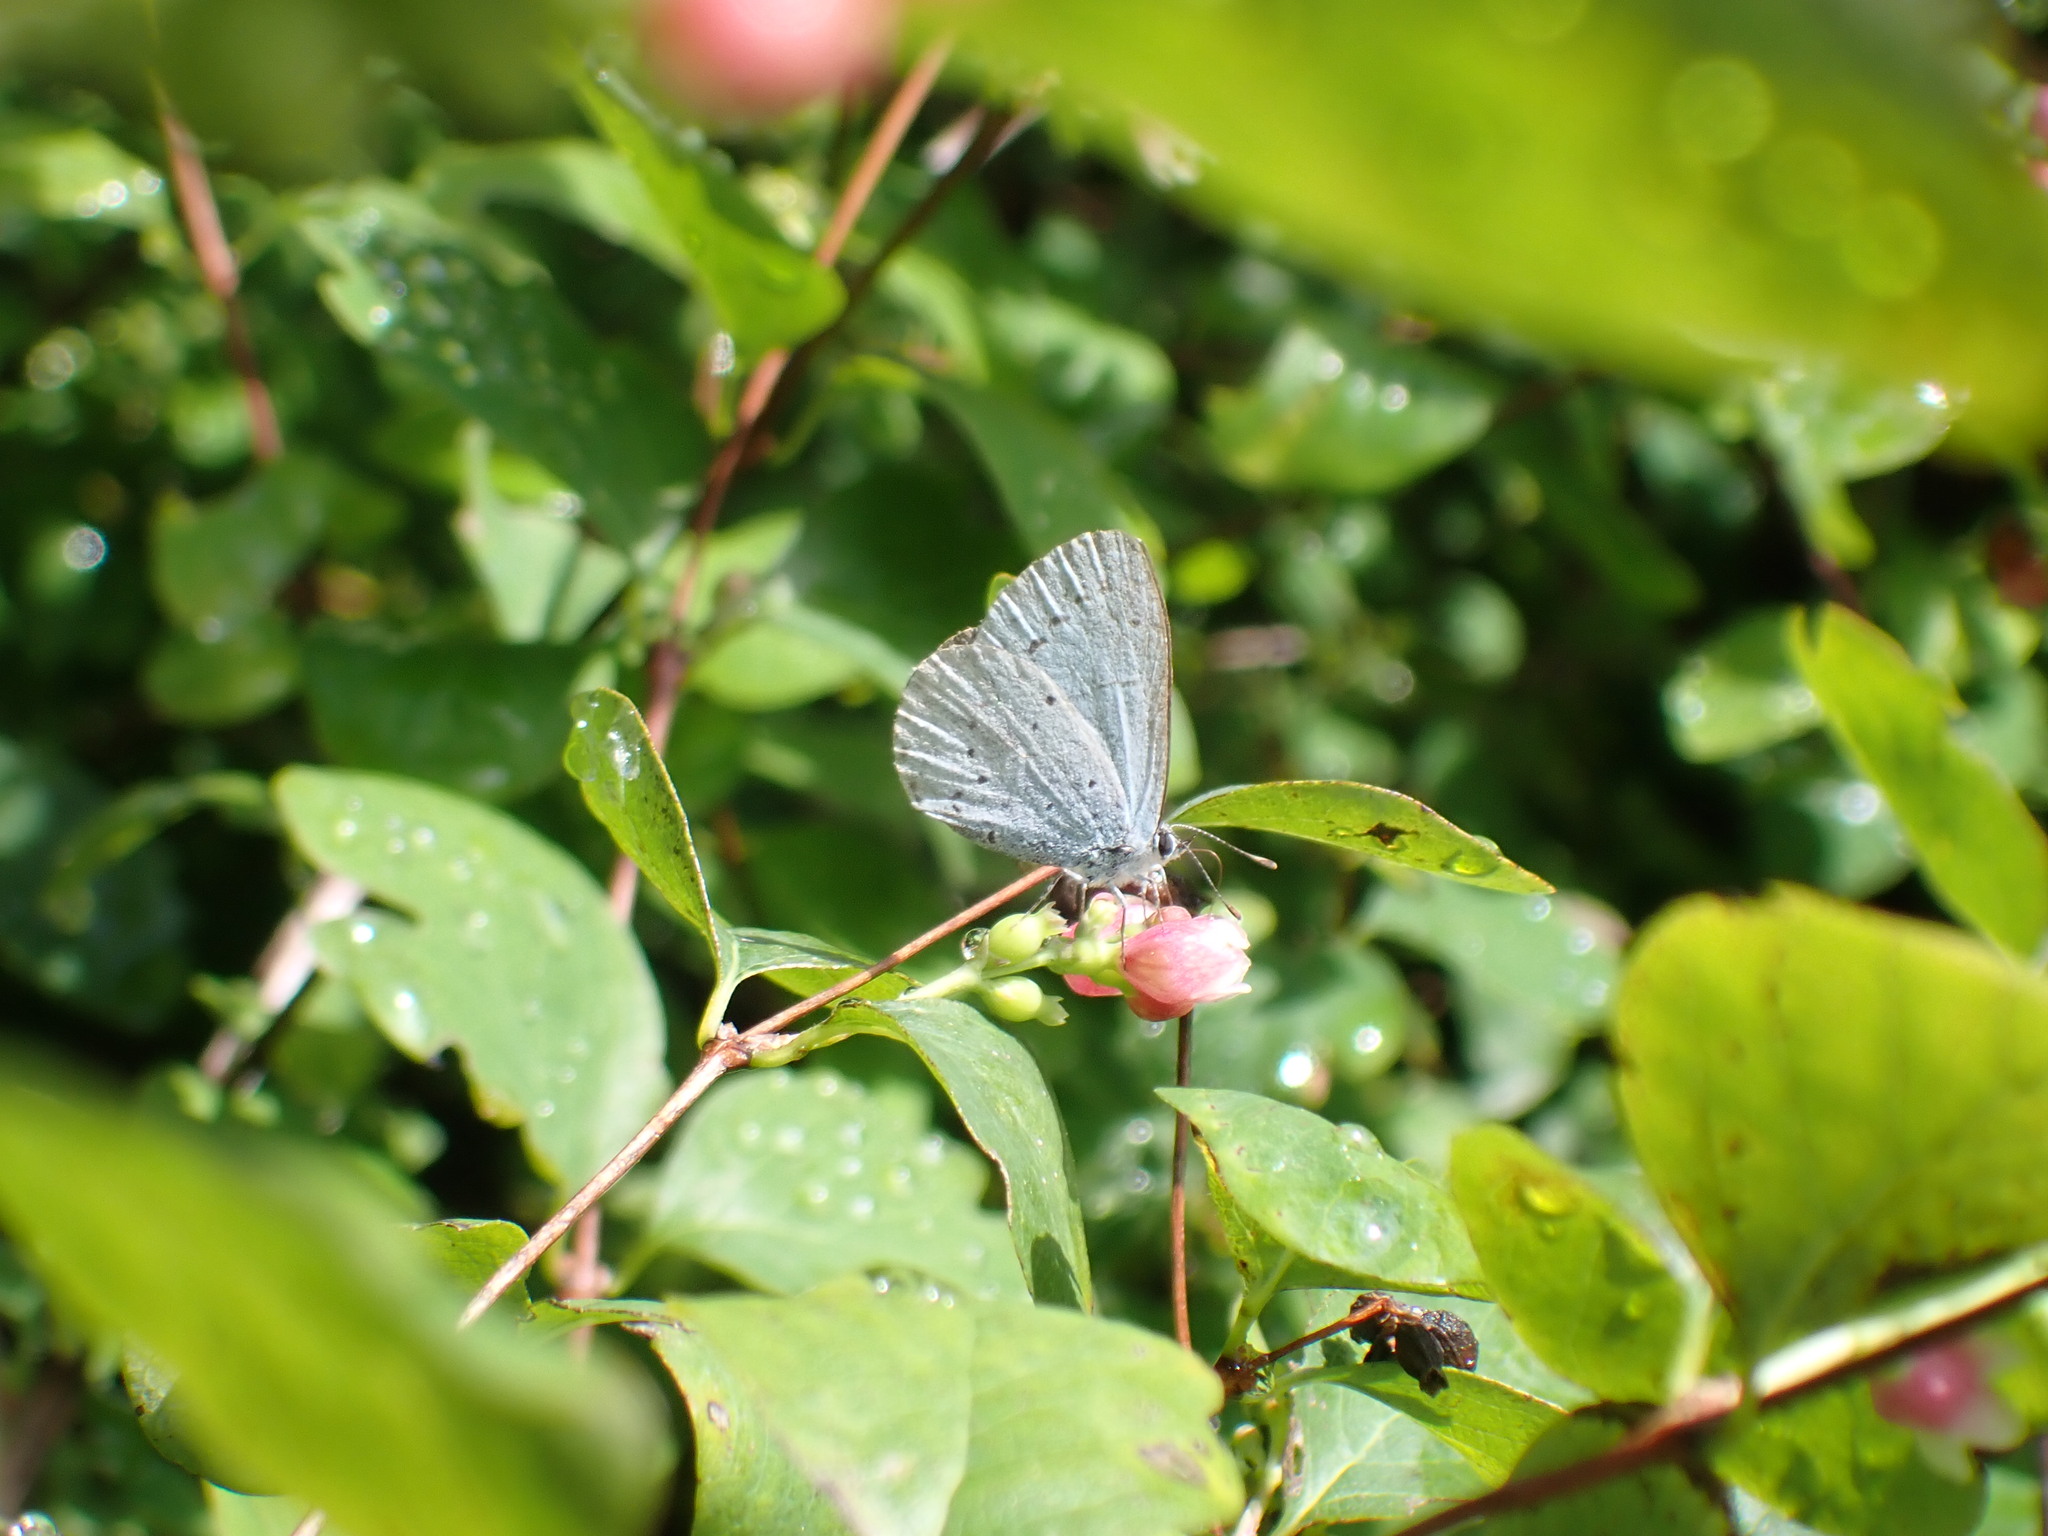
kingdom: Animalia
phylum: Arthropoda
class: Insecta
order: Lepidoptera
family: Lycaenidae
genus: Celastrina
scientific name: Celastrina argiolus
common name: Holly blue
